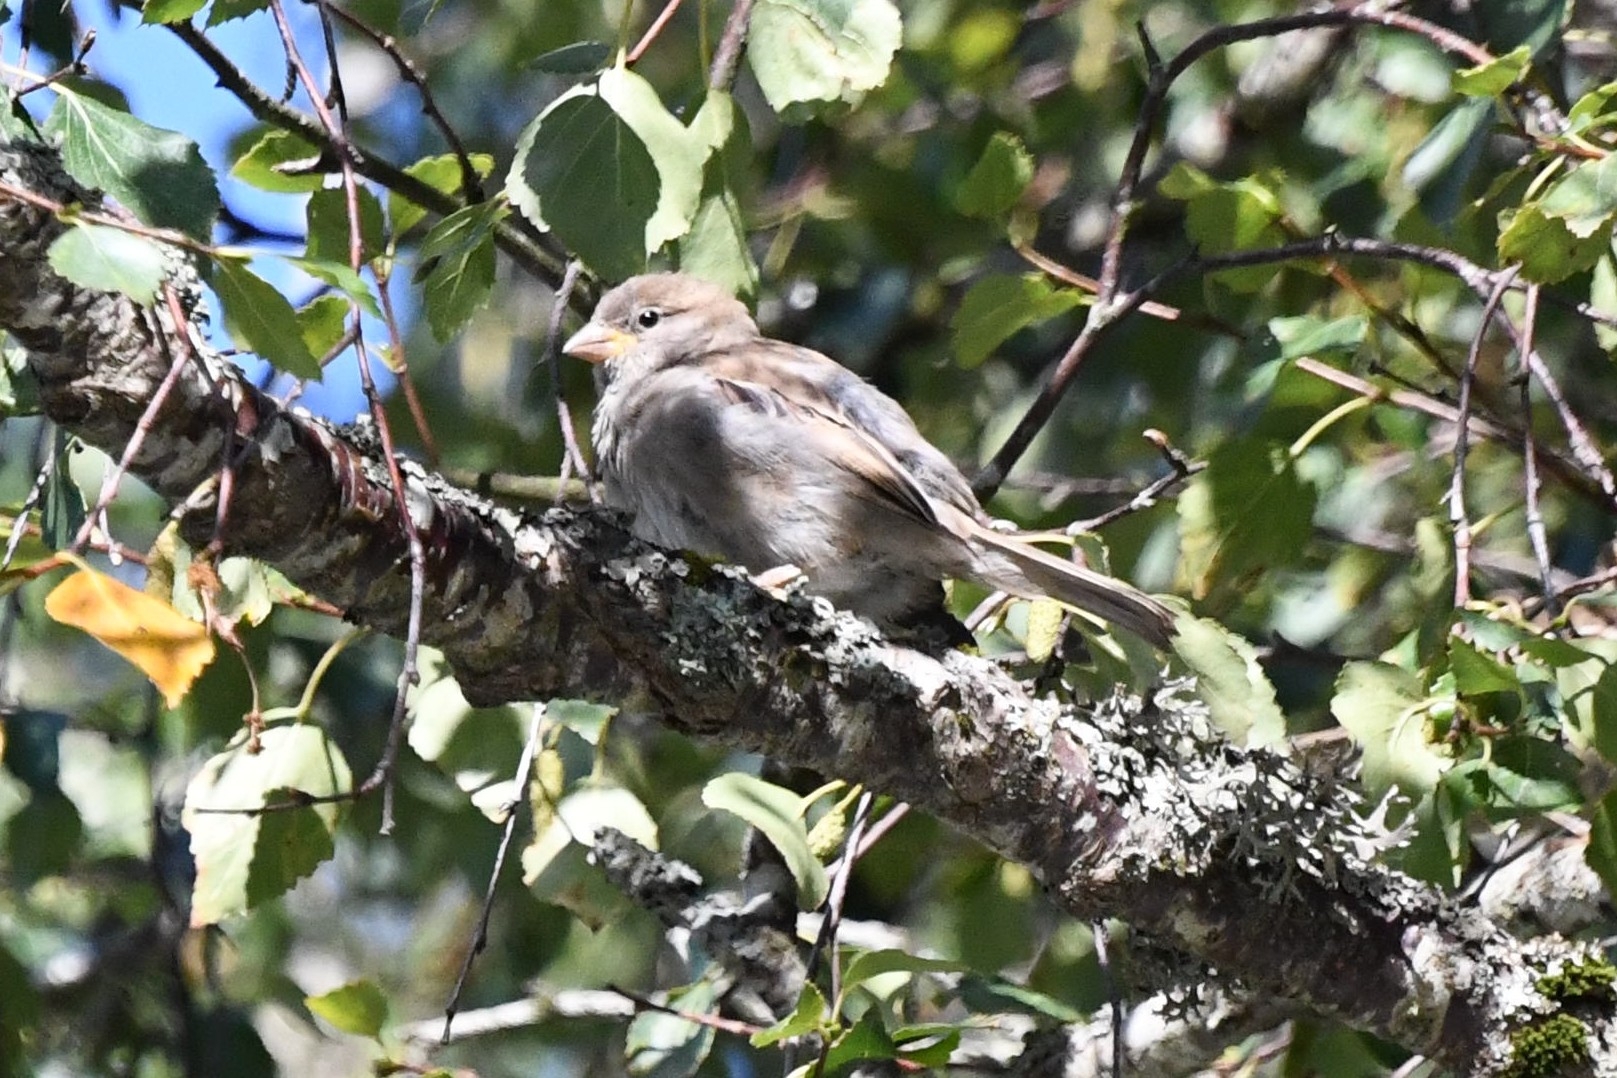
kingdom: Animalia
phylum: Chordata
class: Aves
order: Passeriformes
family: Passeridae
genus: Passer
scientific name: Passer domesticus
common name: House sparrow
